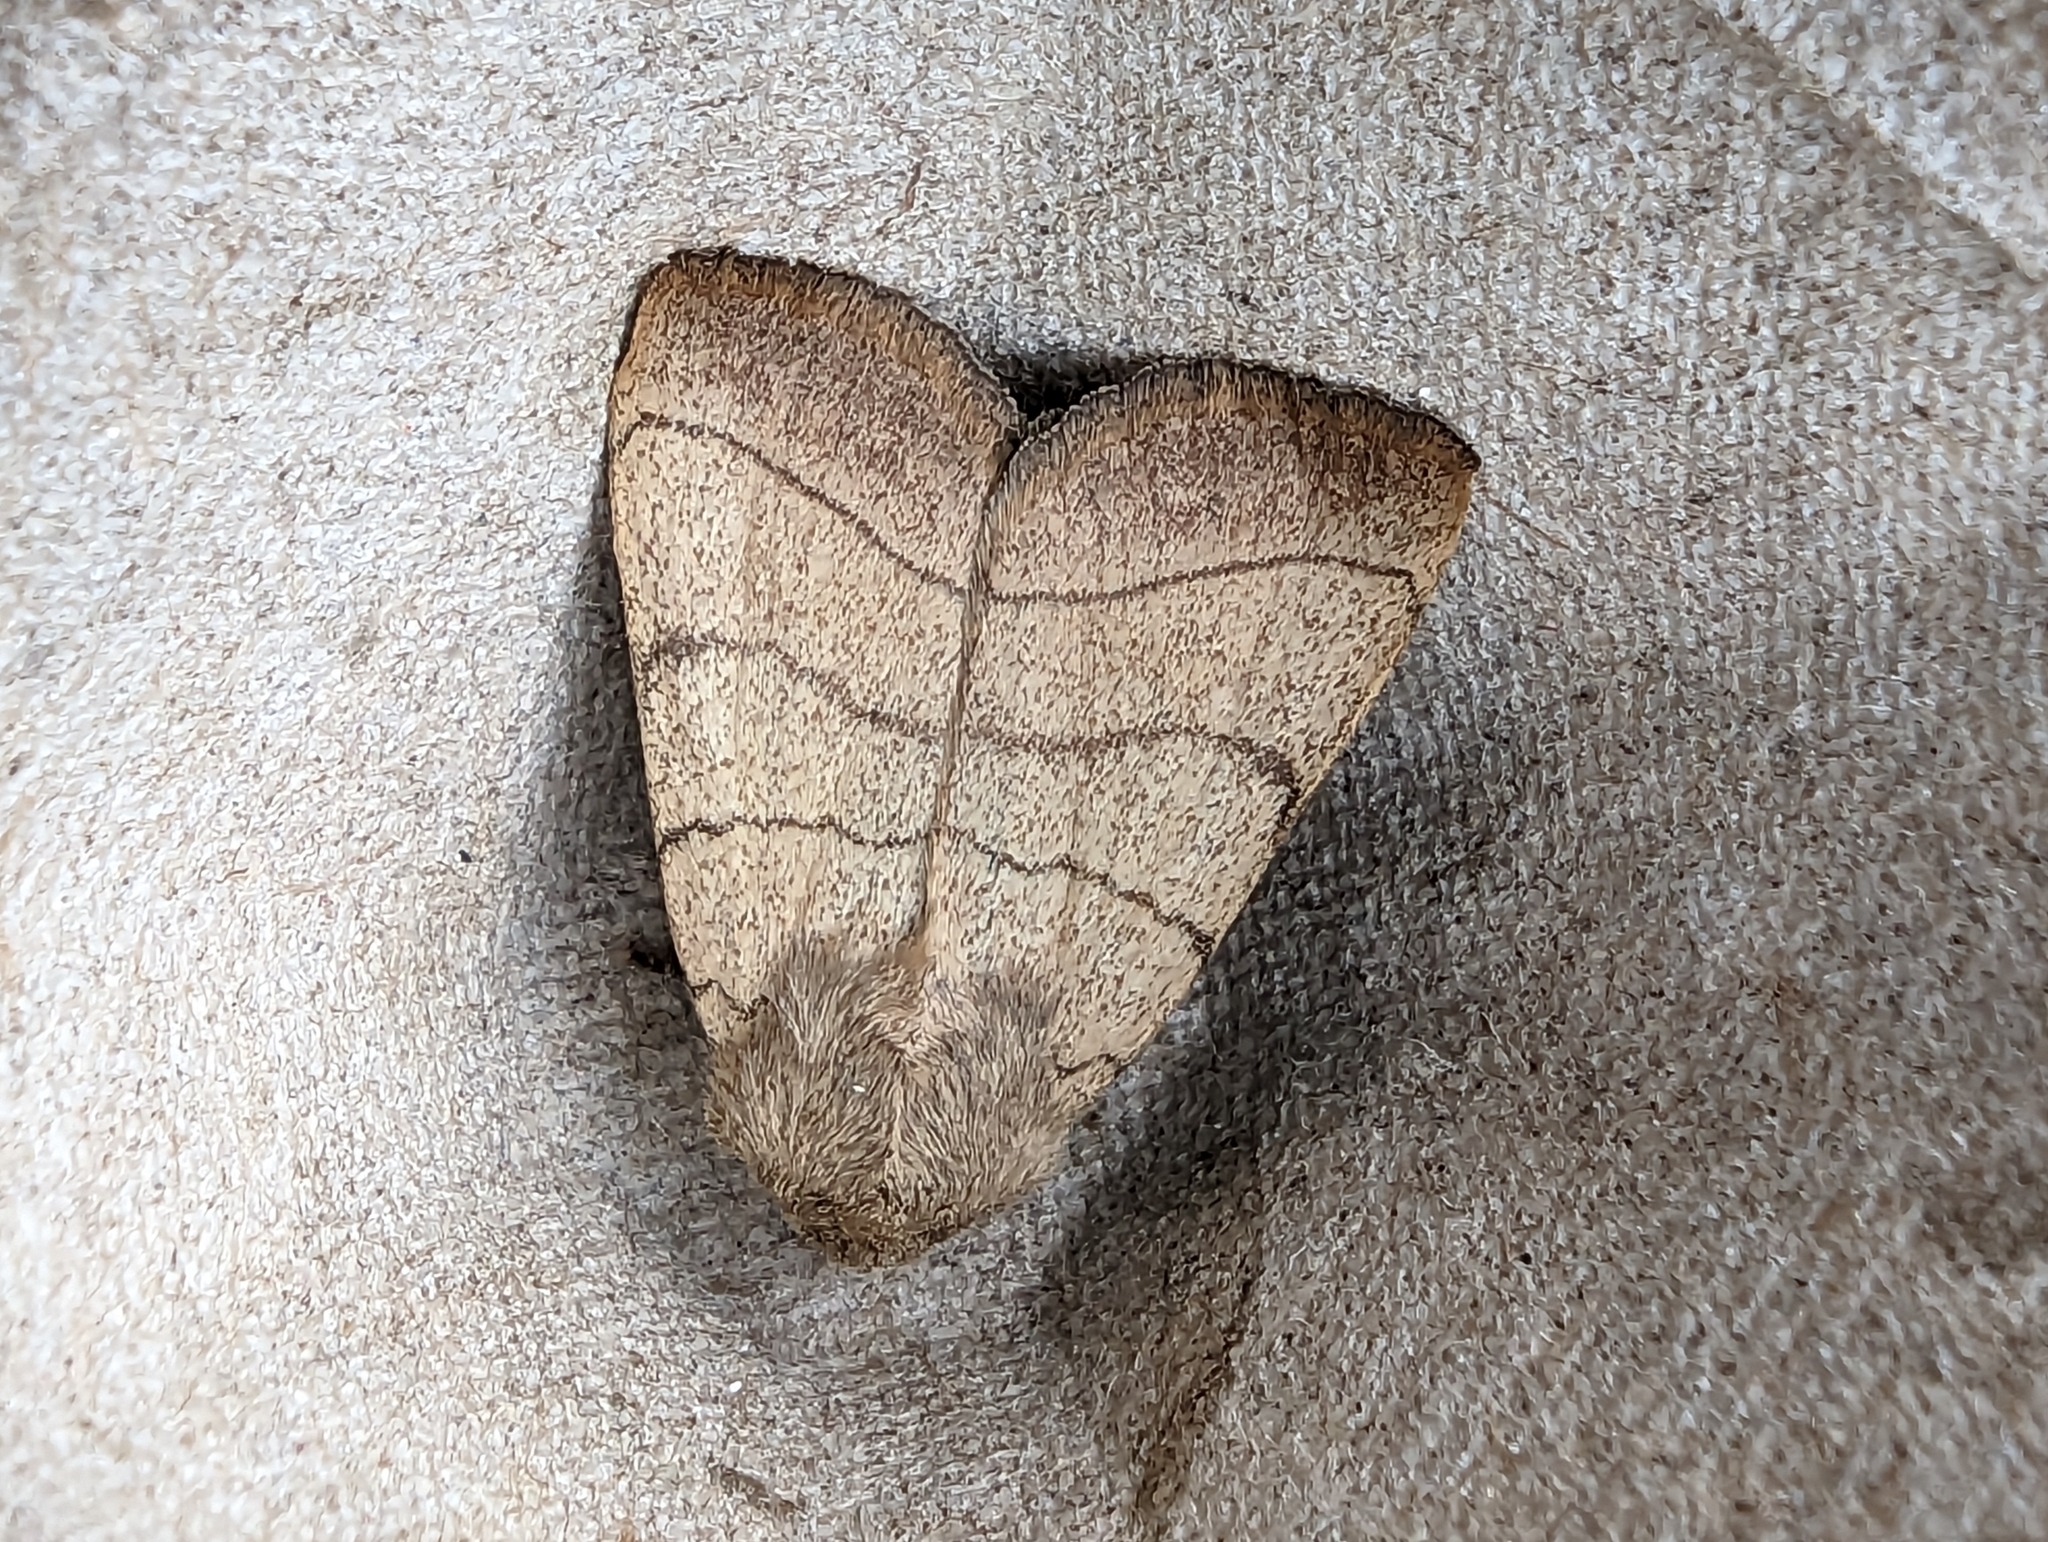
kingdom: Animalia
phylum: Arthropoda
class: Insecta
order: Lepidoptera
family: Noctuidae
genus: Charanyca
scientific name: Charanyca trigrammica
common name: Treble lines
